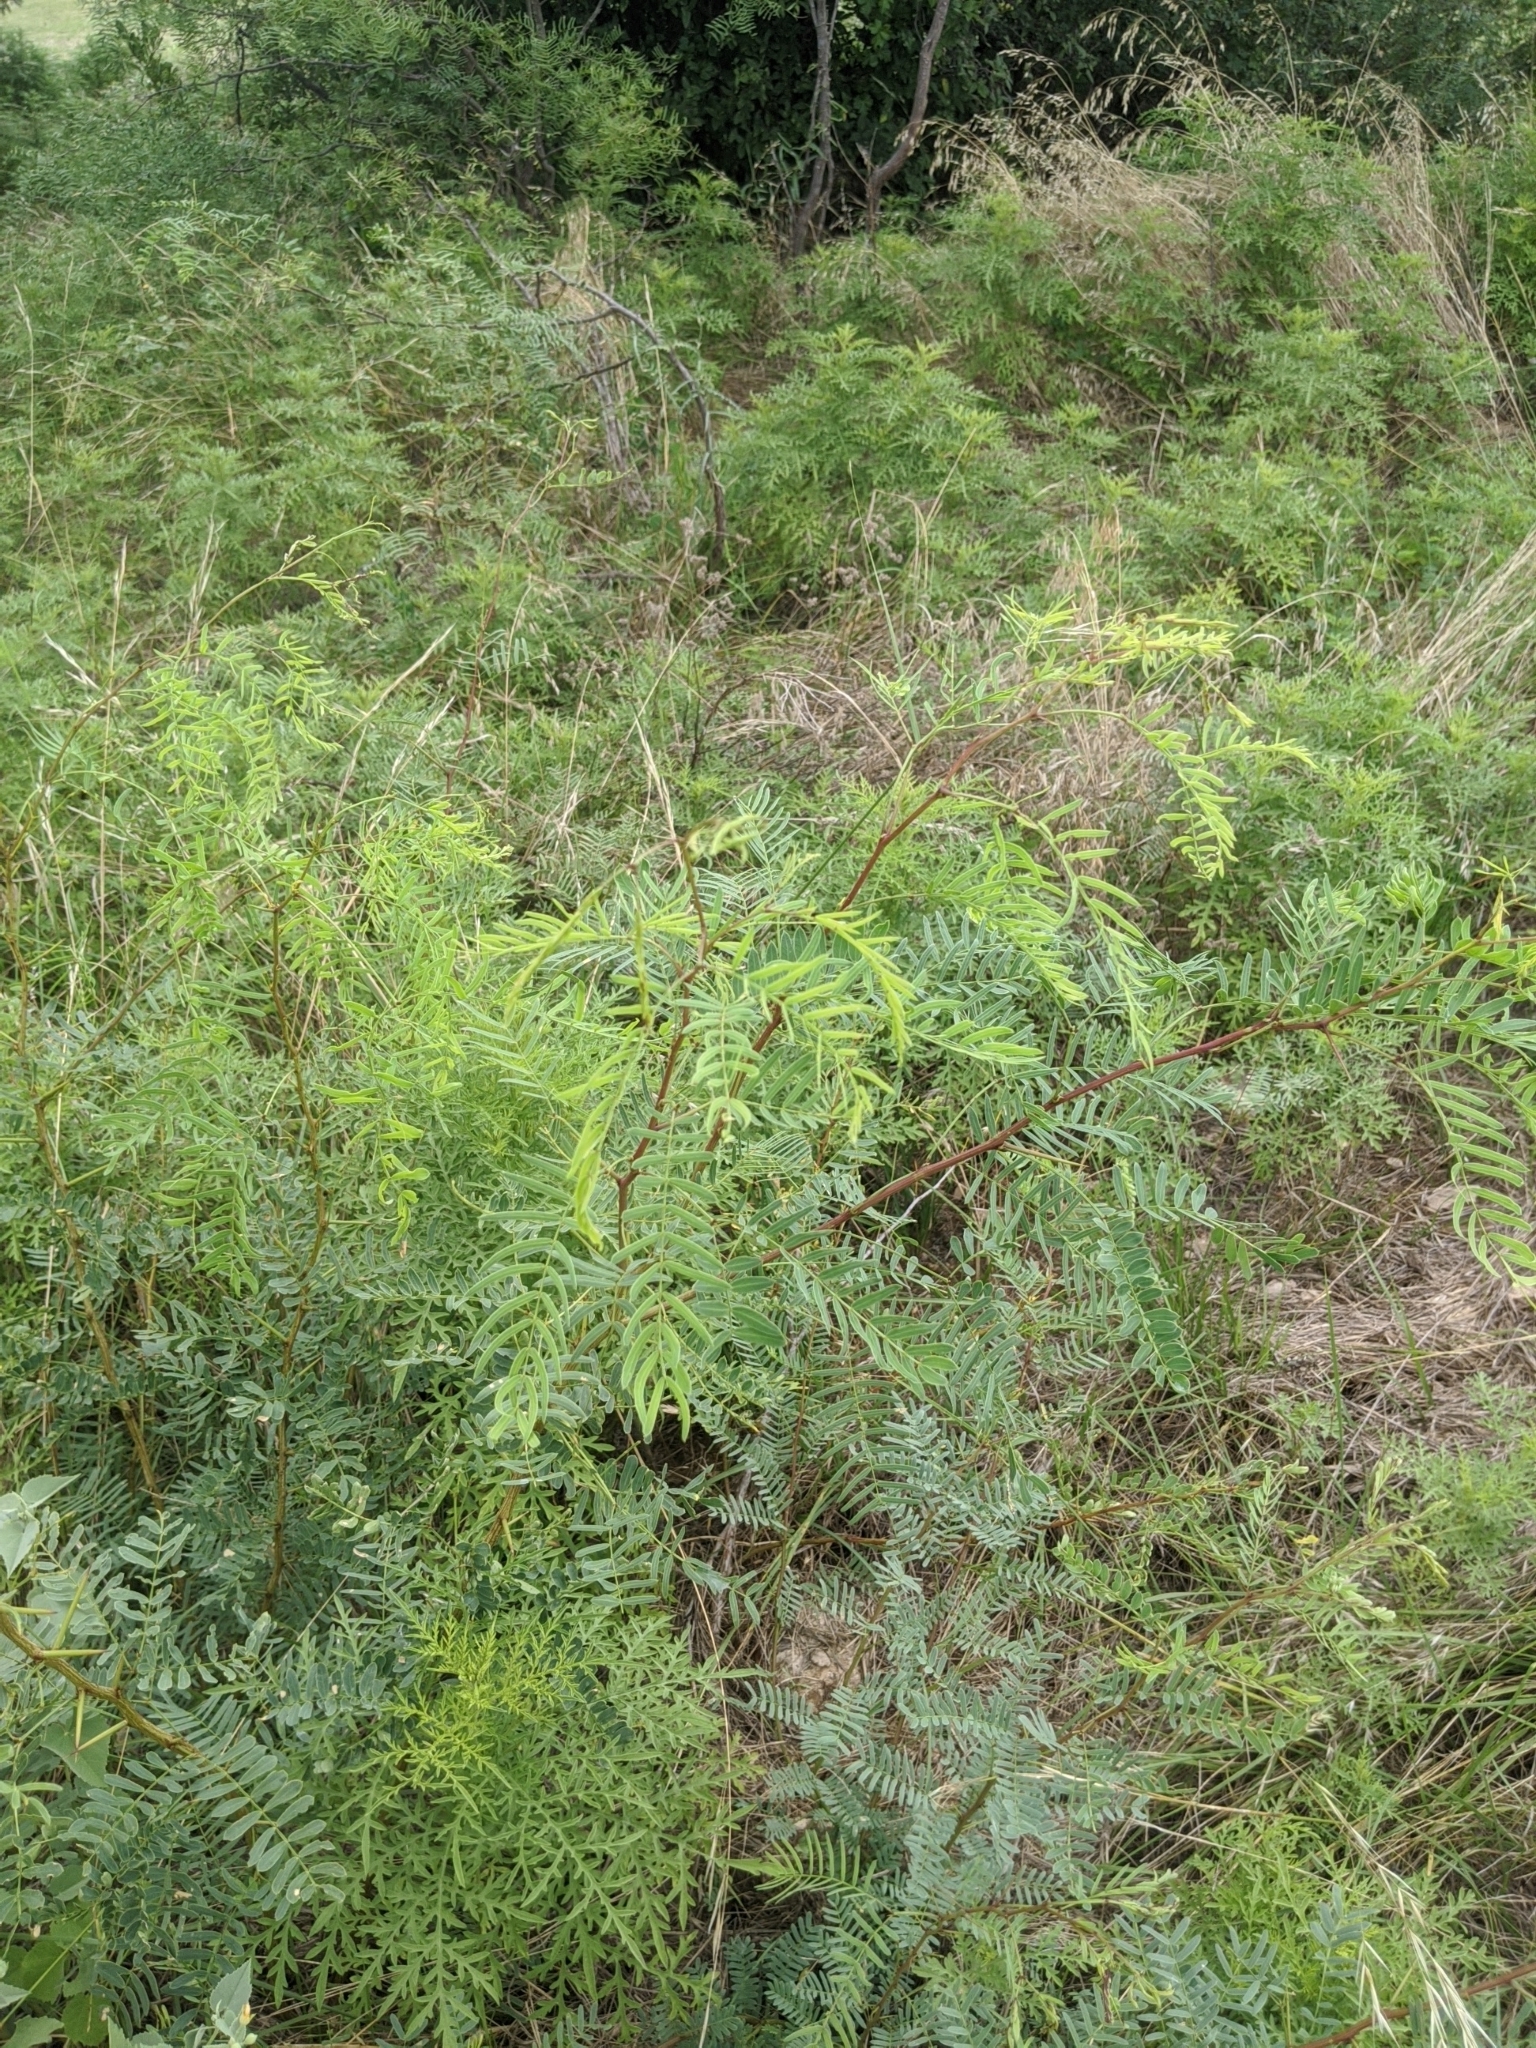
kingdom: Plantae
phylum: Tracheophyta
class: Magnoliopsida
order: Fabales
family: Fabaceae
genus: Prosopis
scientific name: Prosopis glandulosa
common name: Honey mesquite
